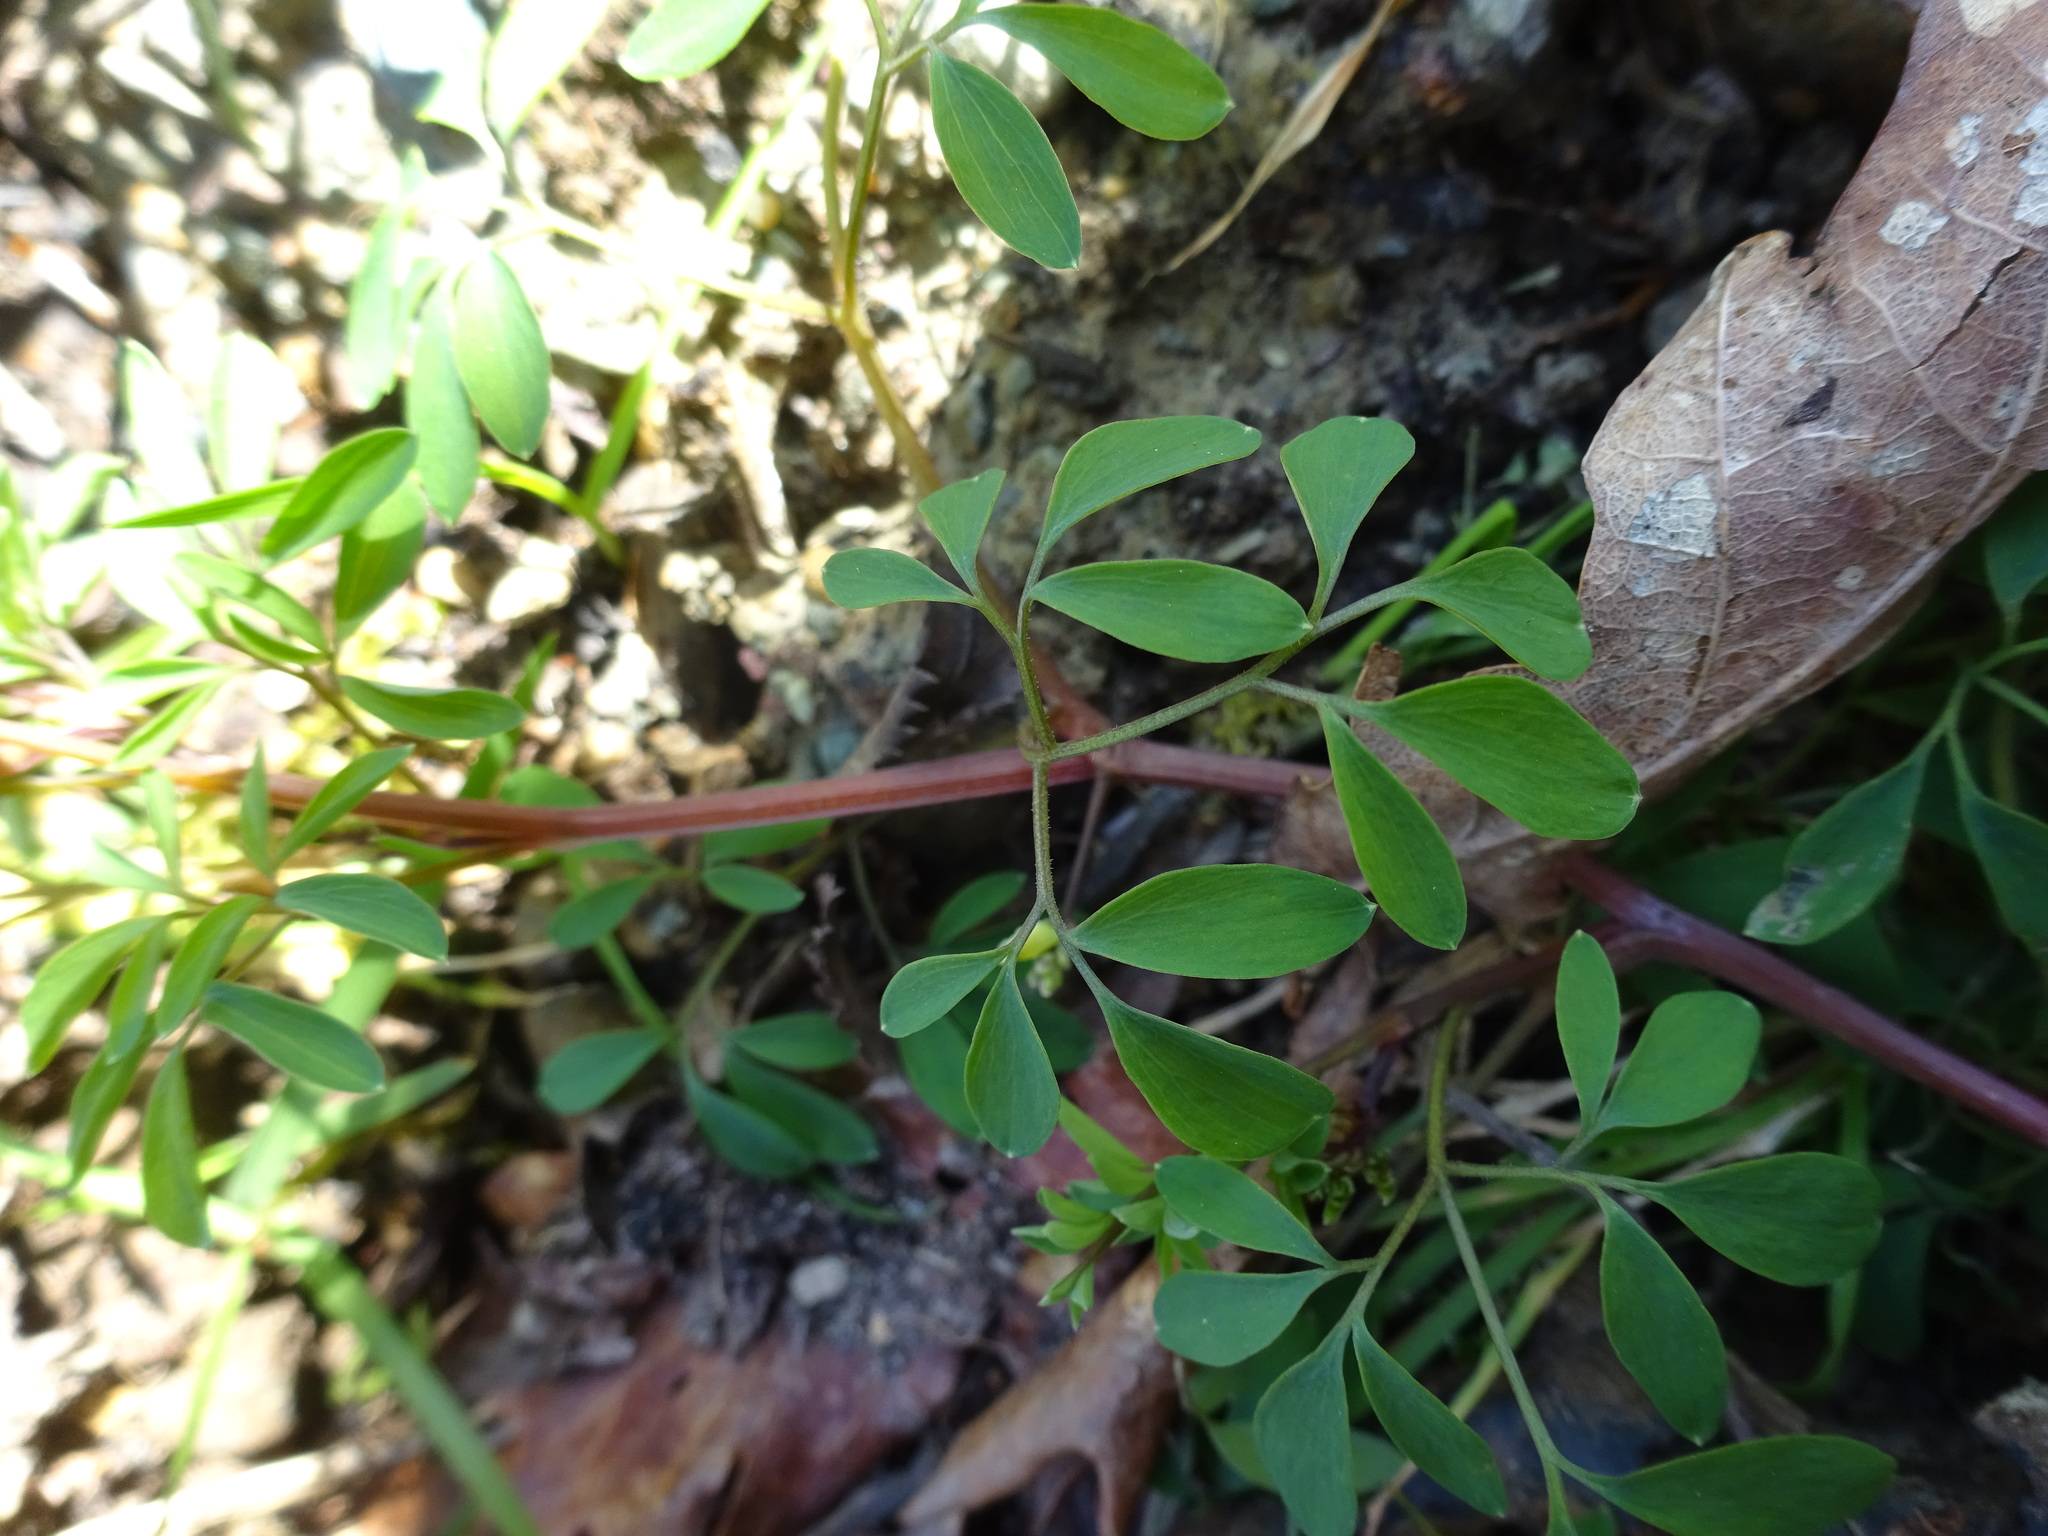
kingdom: Plantae
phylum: Tracheophyta
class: Magnoliopsida
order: Ranunculales
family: Papaveraceae
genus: Ceratocapnos
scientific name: Ceratocapnos claviculata
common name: Climbing corydalis
